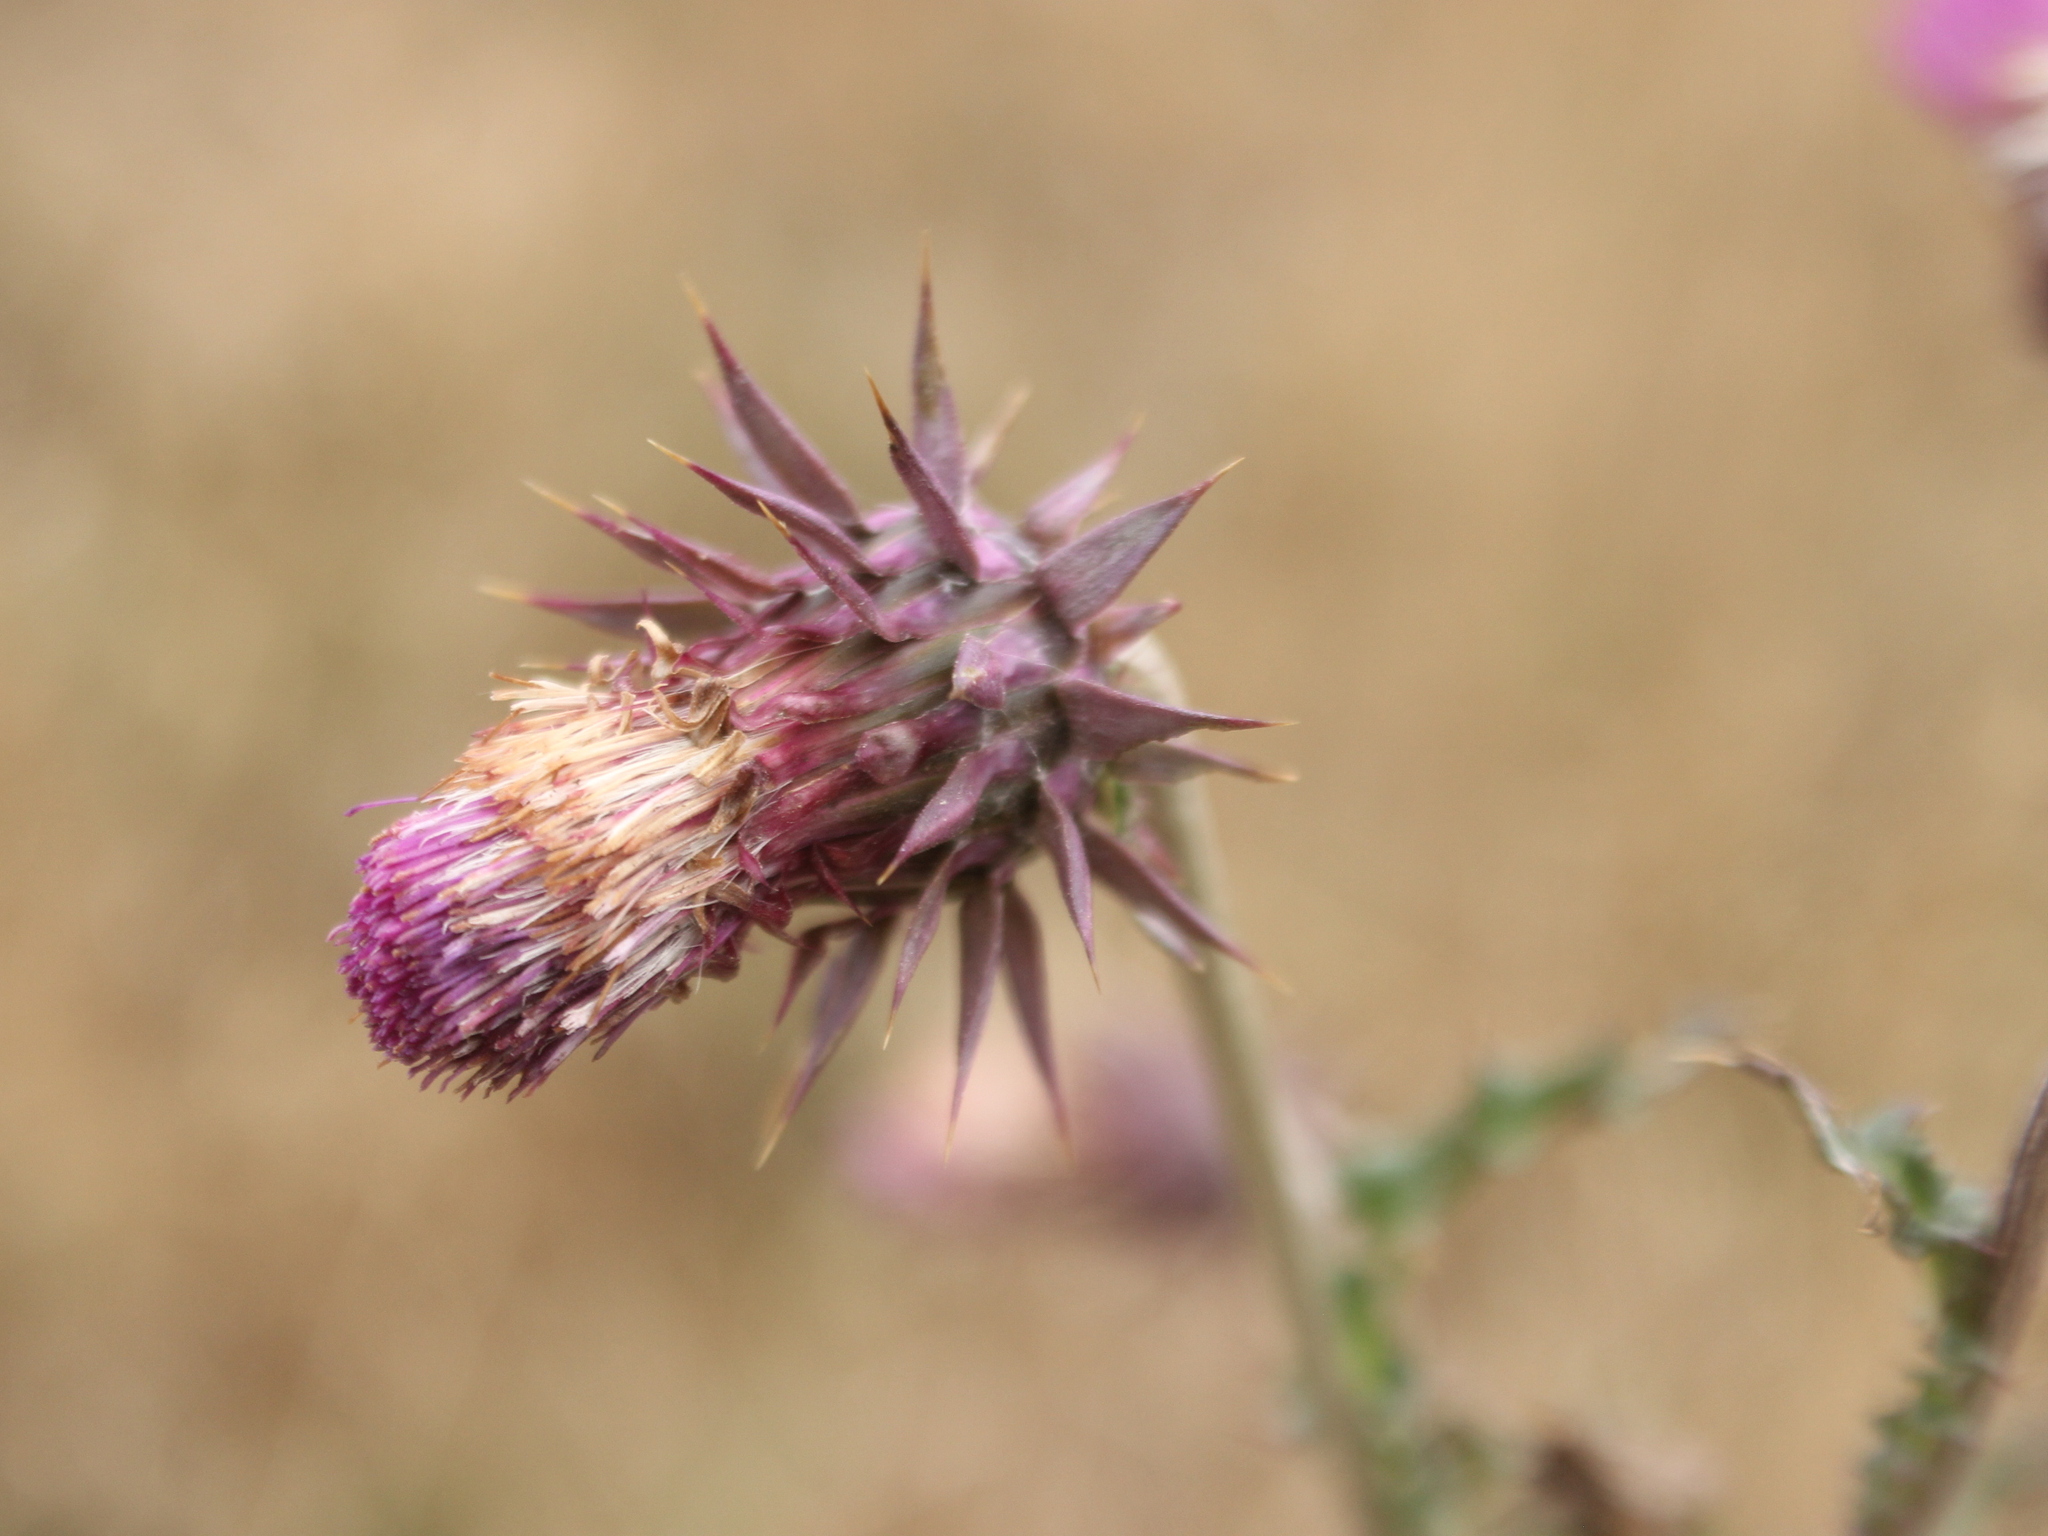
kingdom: Plantae
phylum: Tracheophyta
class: Magnoliopsida
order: Asterales
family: Asteraceae
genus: Carduus
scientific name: Carduus nutans
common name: Musk thistle
